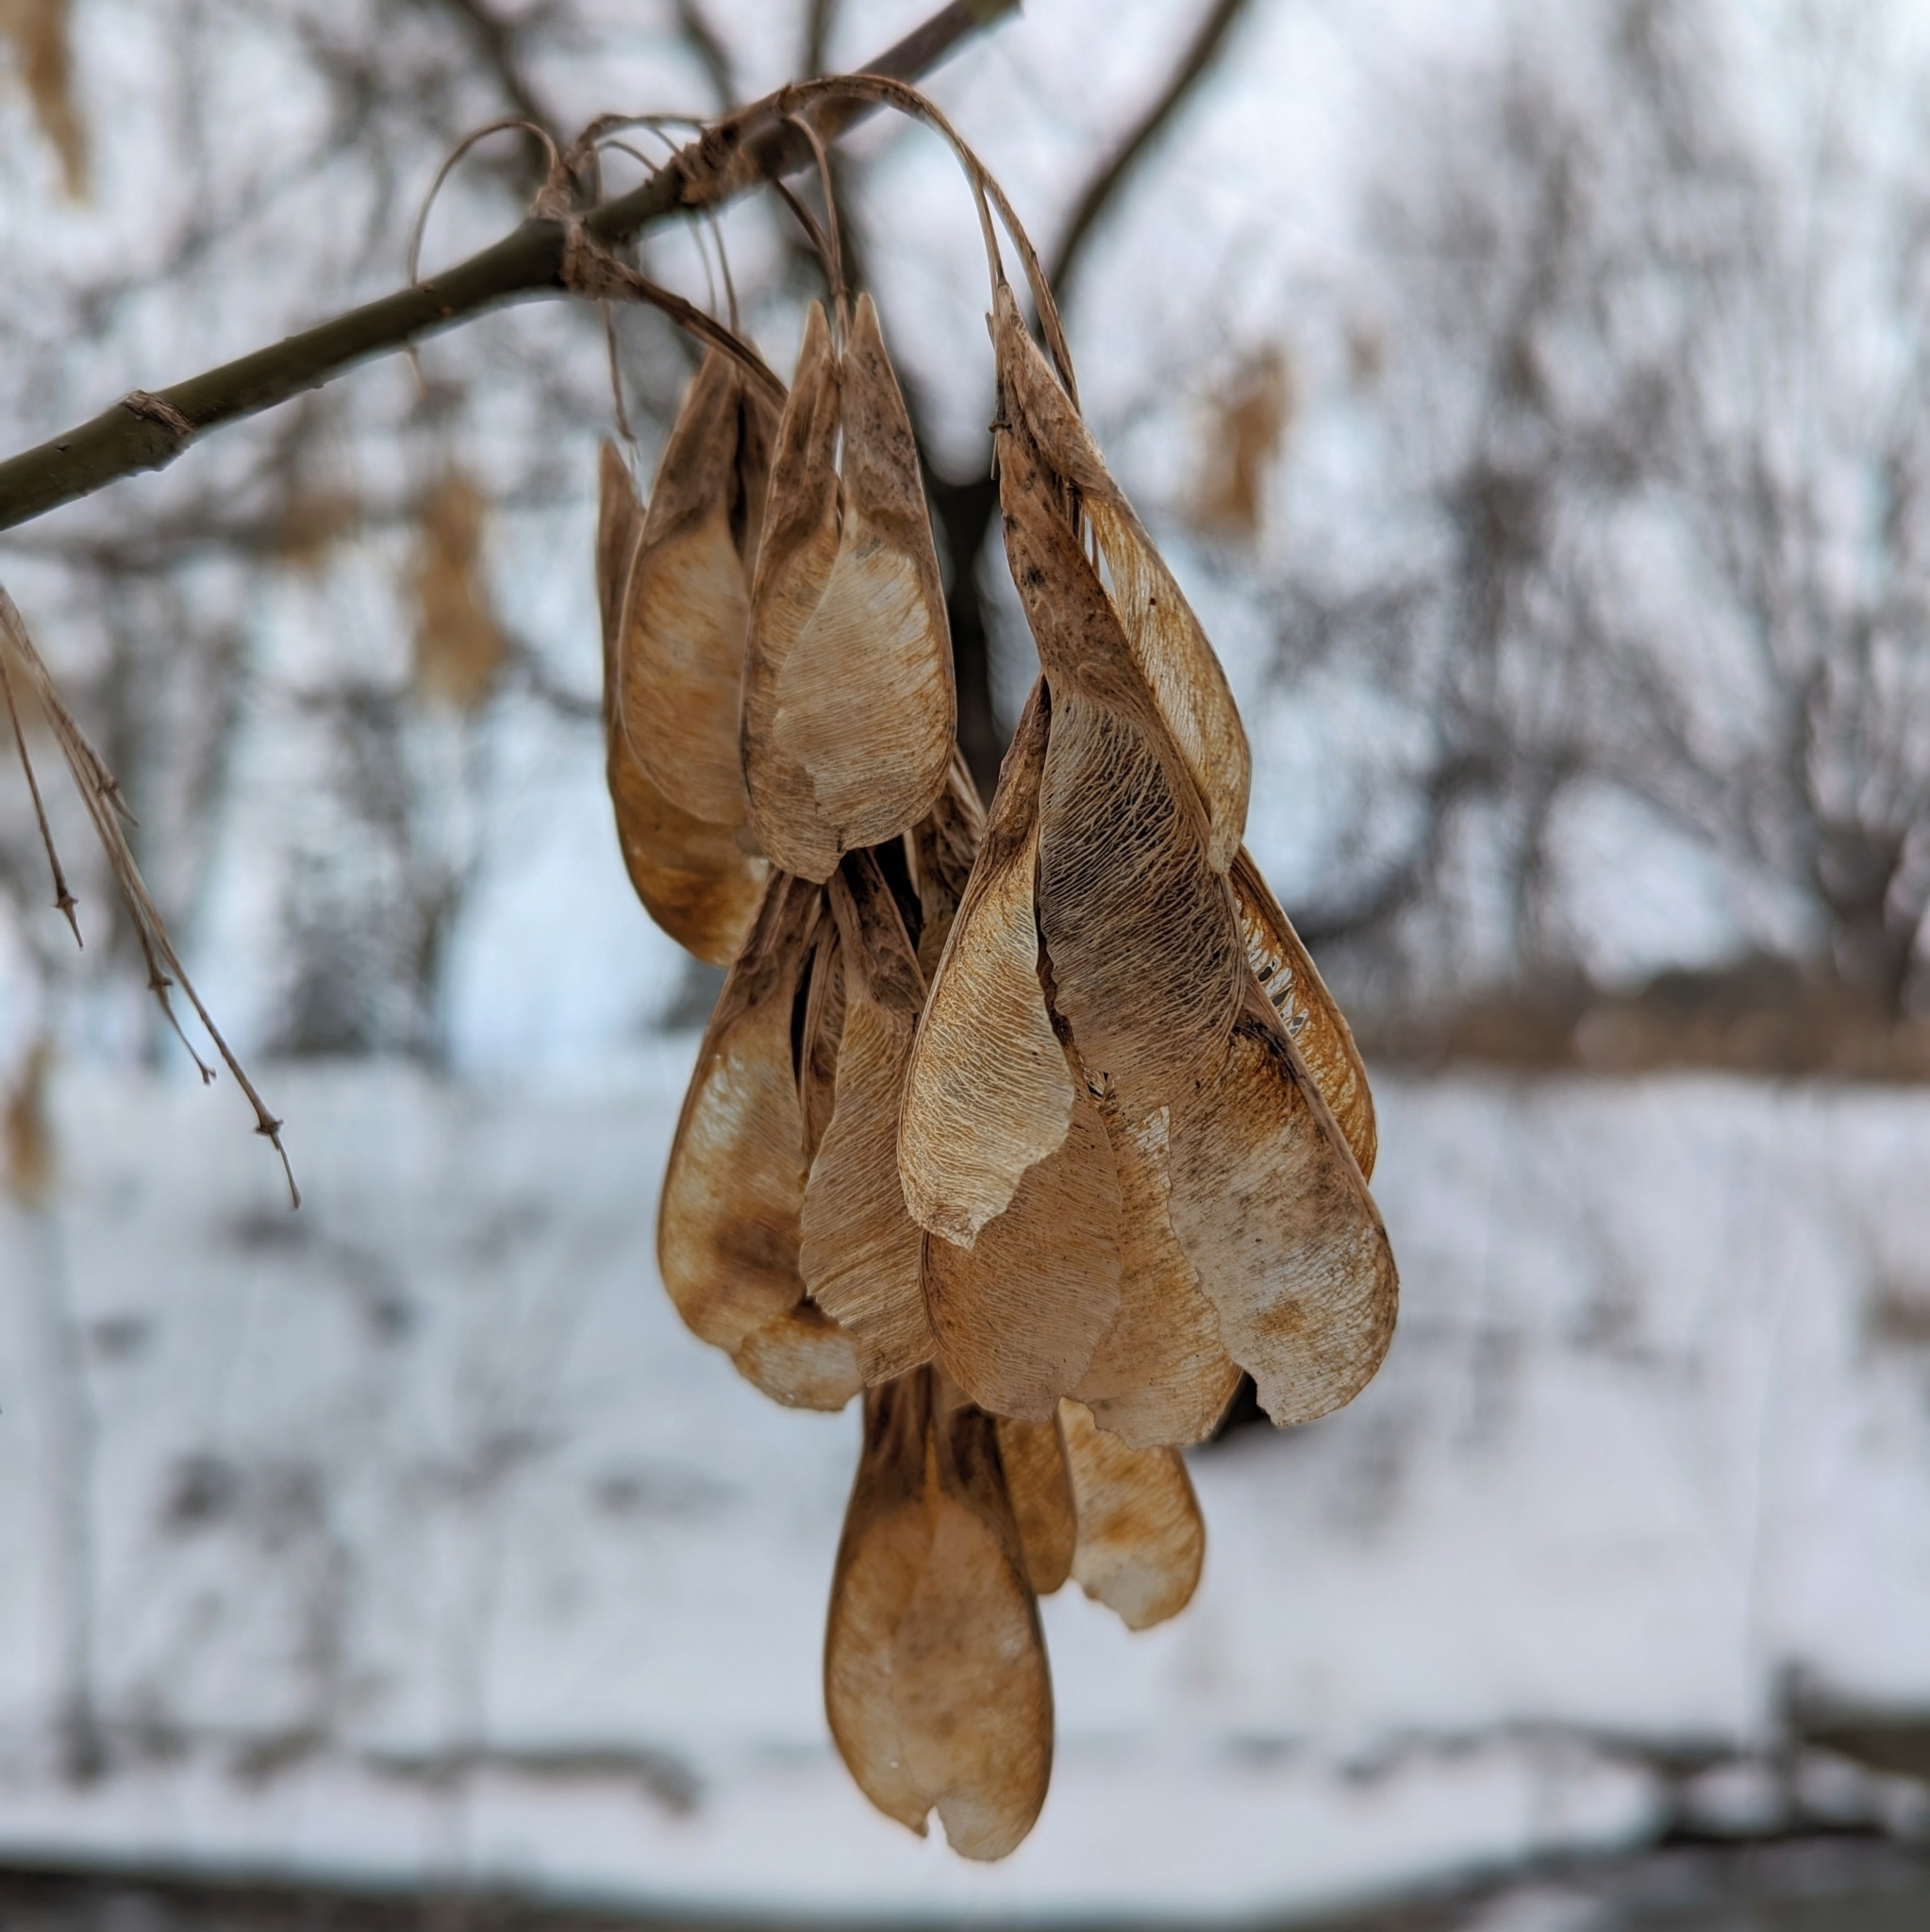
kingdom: Plantae
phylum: Tracheophyta
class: Magnoliopsida
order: Sapindales
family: Sapindaceae
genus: Acer
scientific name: Acer negundo
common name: Ashleaf maple
